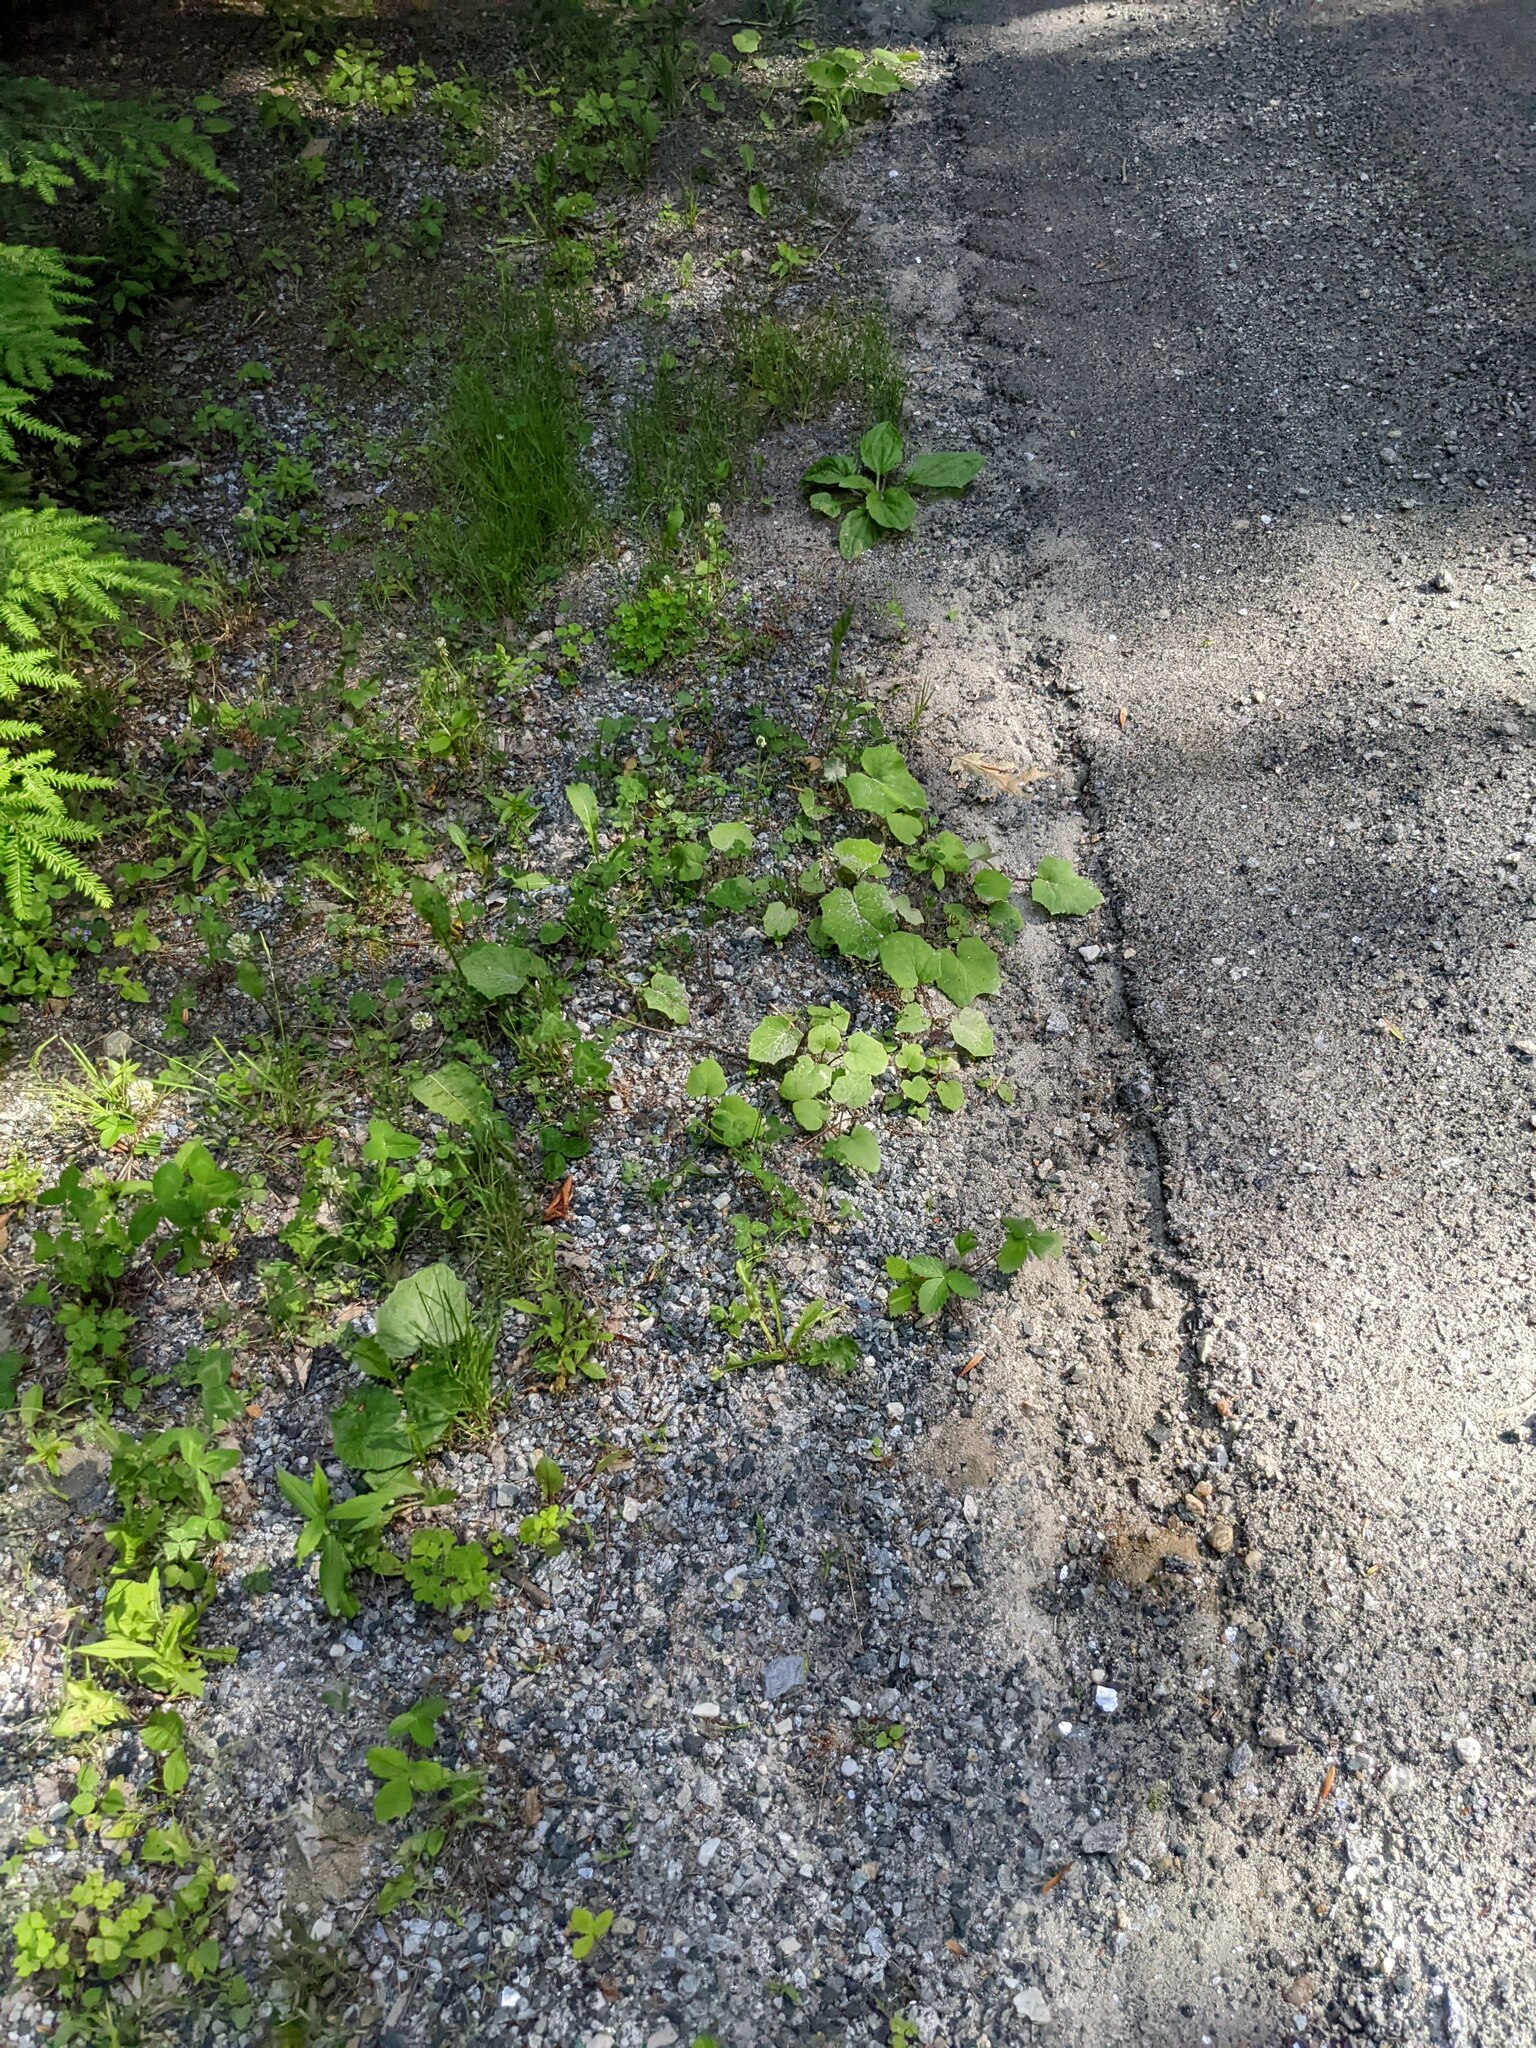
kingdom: Plantae
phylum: Tracheophyta
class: Magnoliopsida
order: Asterales
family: Asteraceae
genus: Tussilago
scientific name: Tussilago farfara
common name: Coltsfoot
